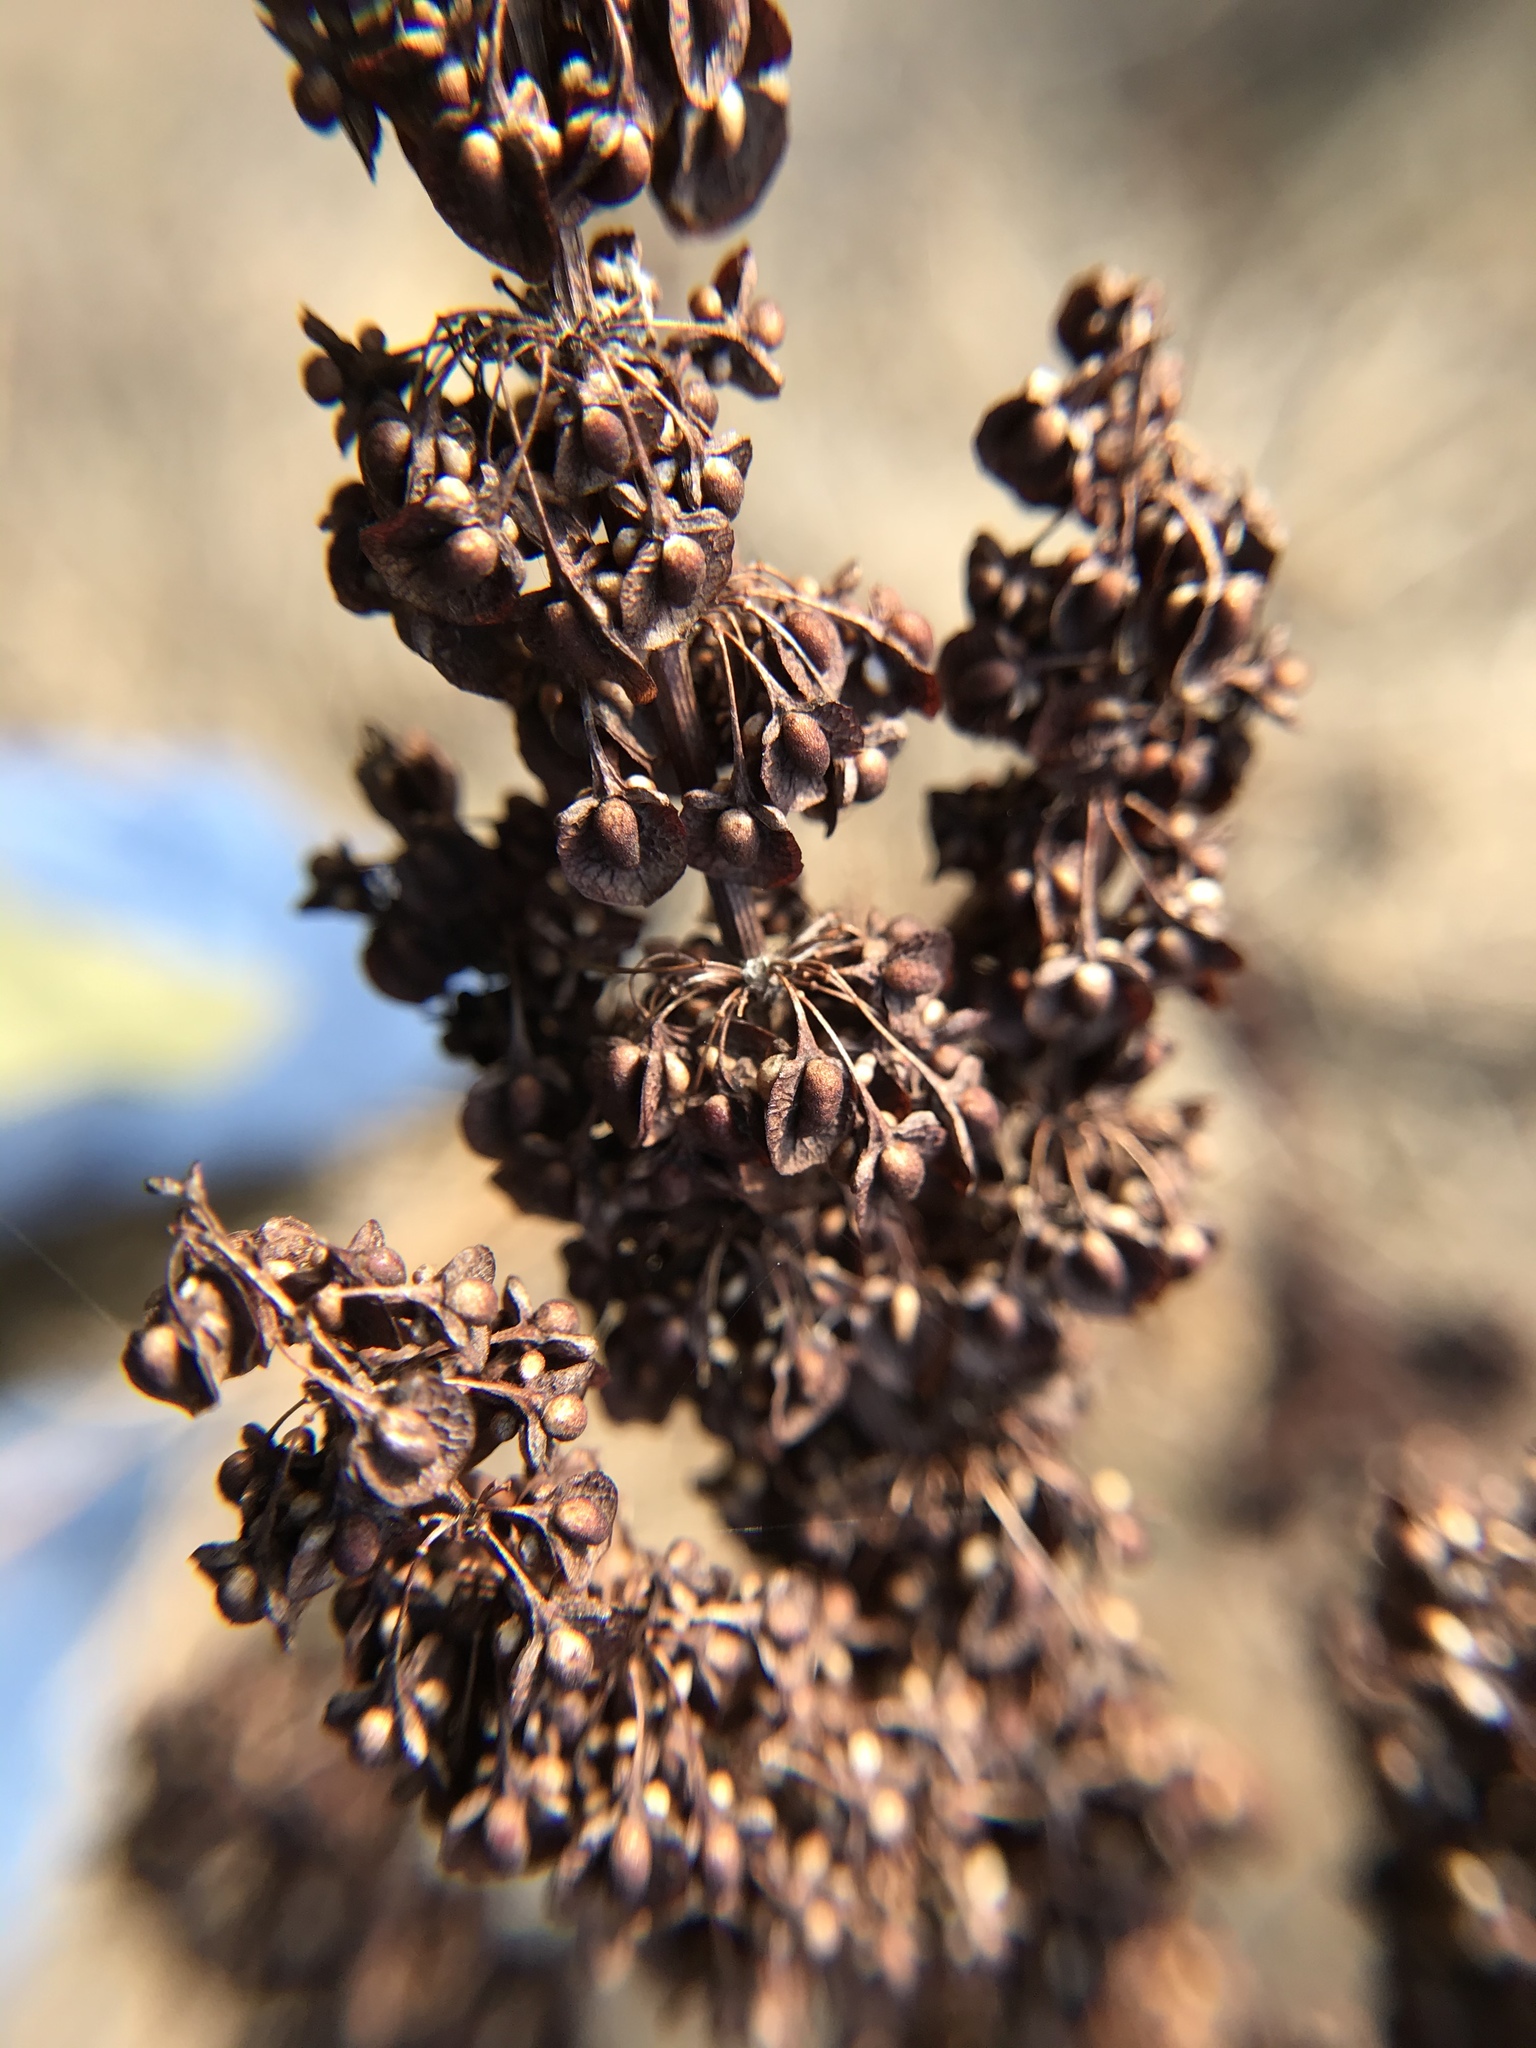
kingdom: Plantae
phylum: Tracheophyta
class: Magnoliopsida
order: Caryophyllales
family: Polygonaceae
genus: Rumex
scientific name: Rumex
